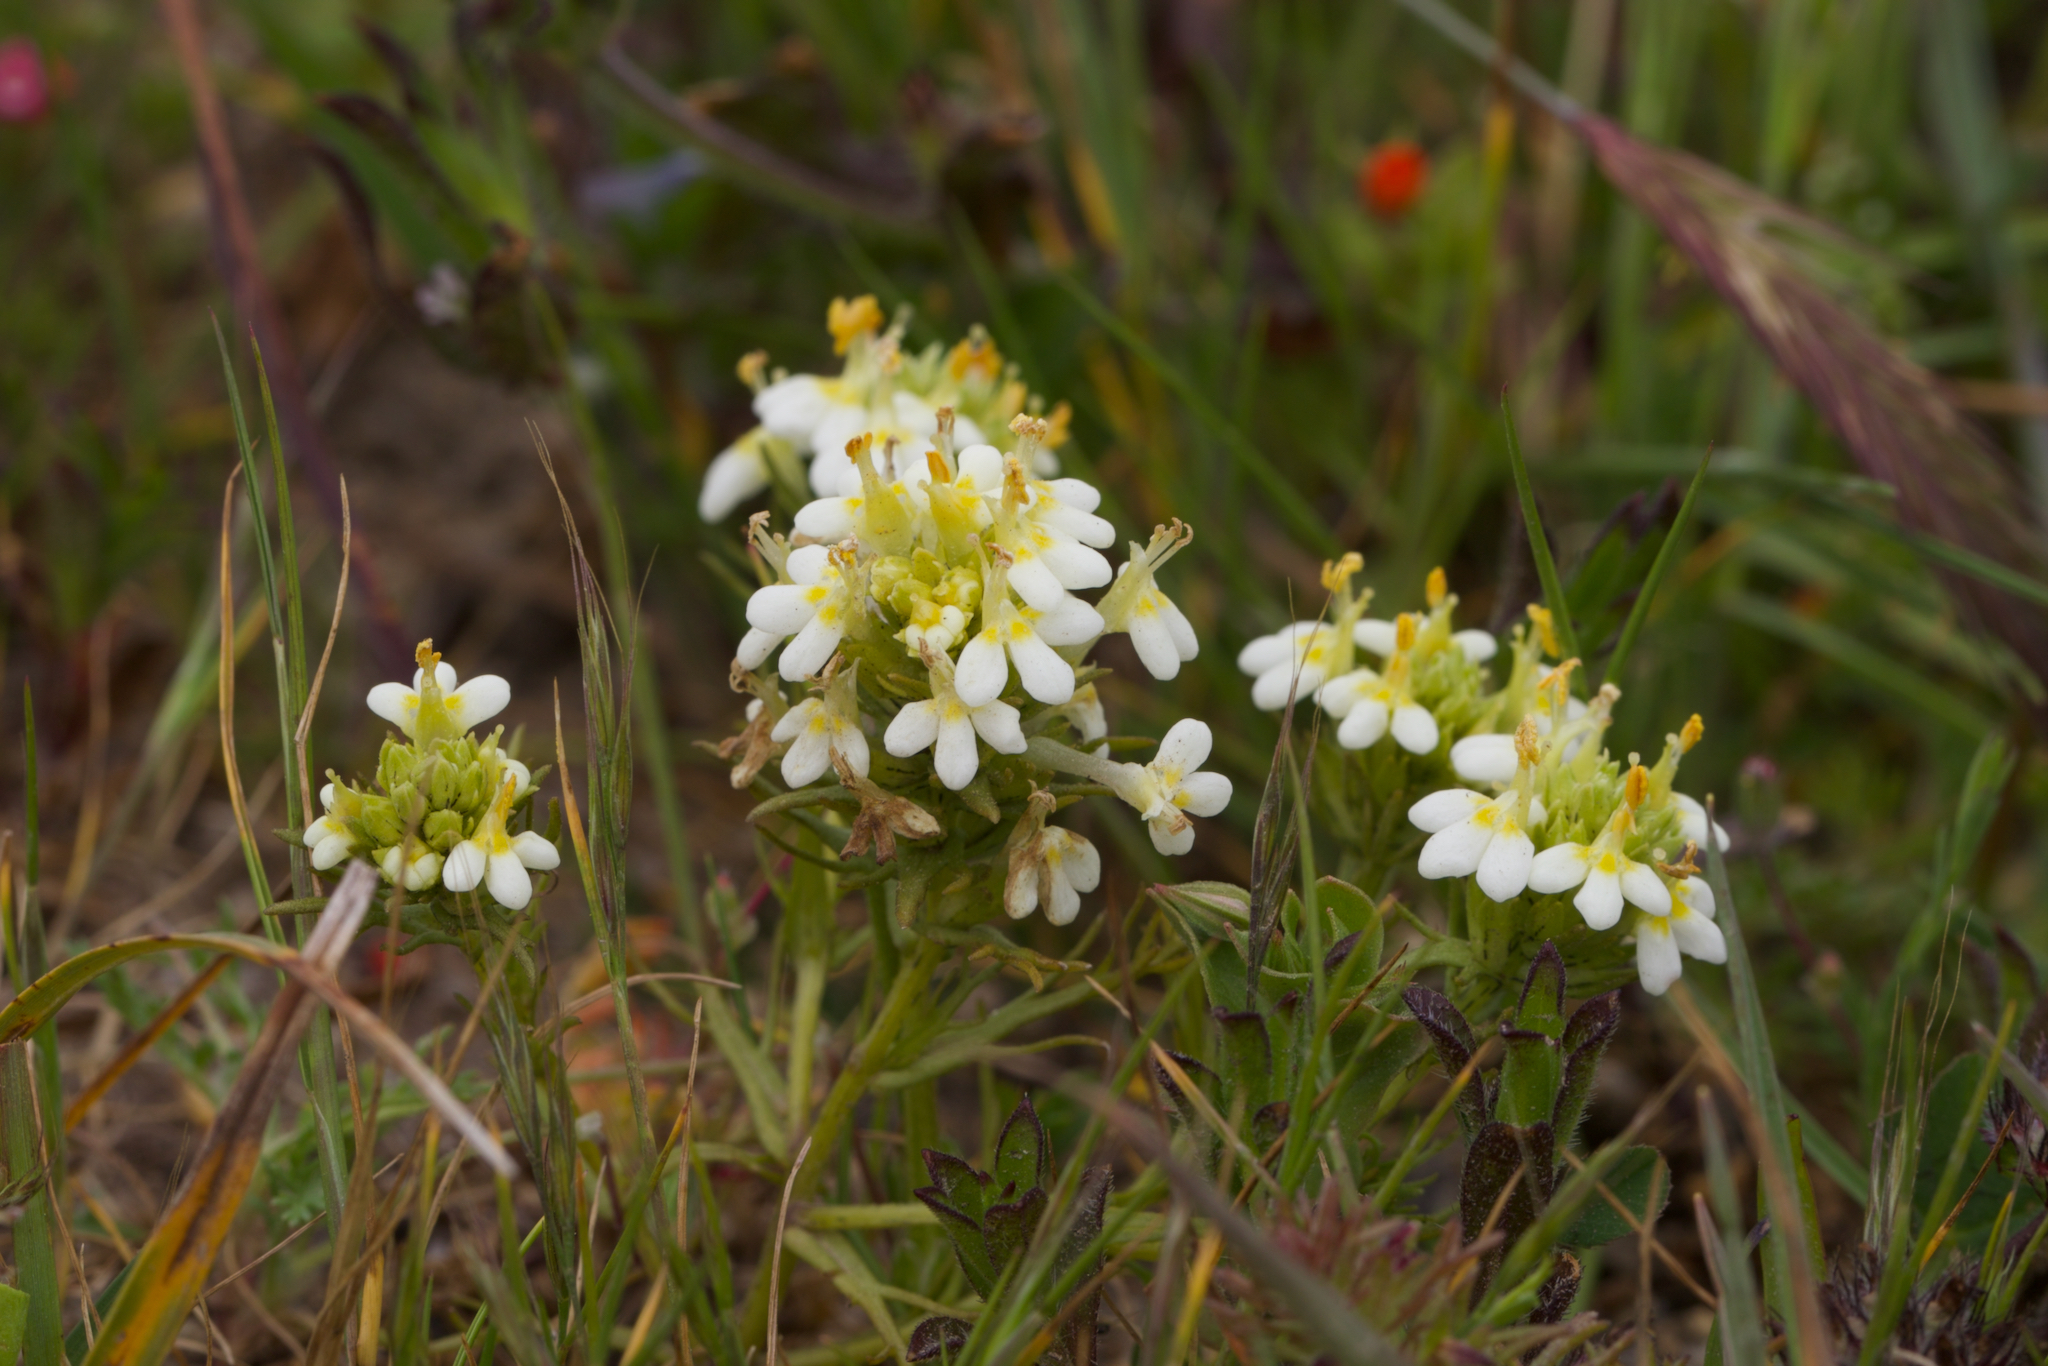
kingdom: Plantae
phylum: Tracheophyta
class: Magnoliopsida
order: Lamiales
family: Orobanchaceae
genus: Triphysaria
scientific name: Triphysaria floribunda
